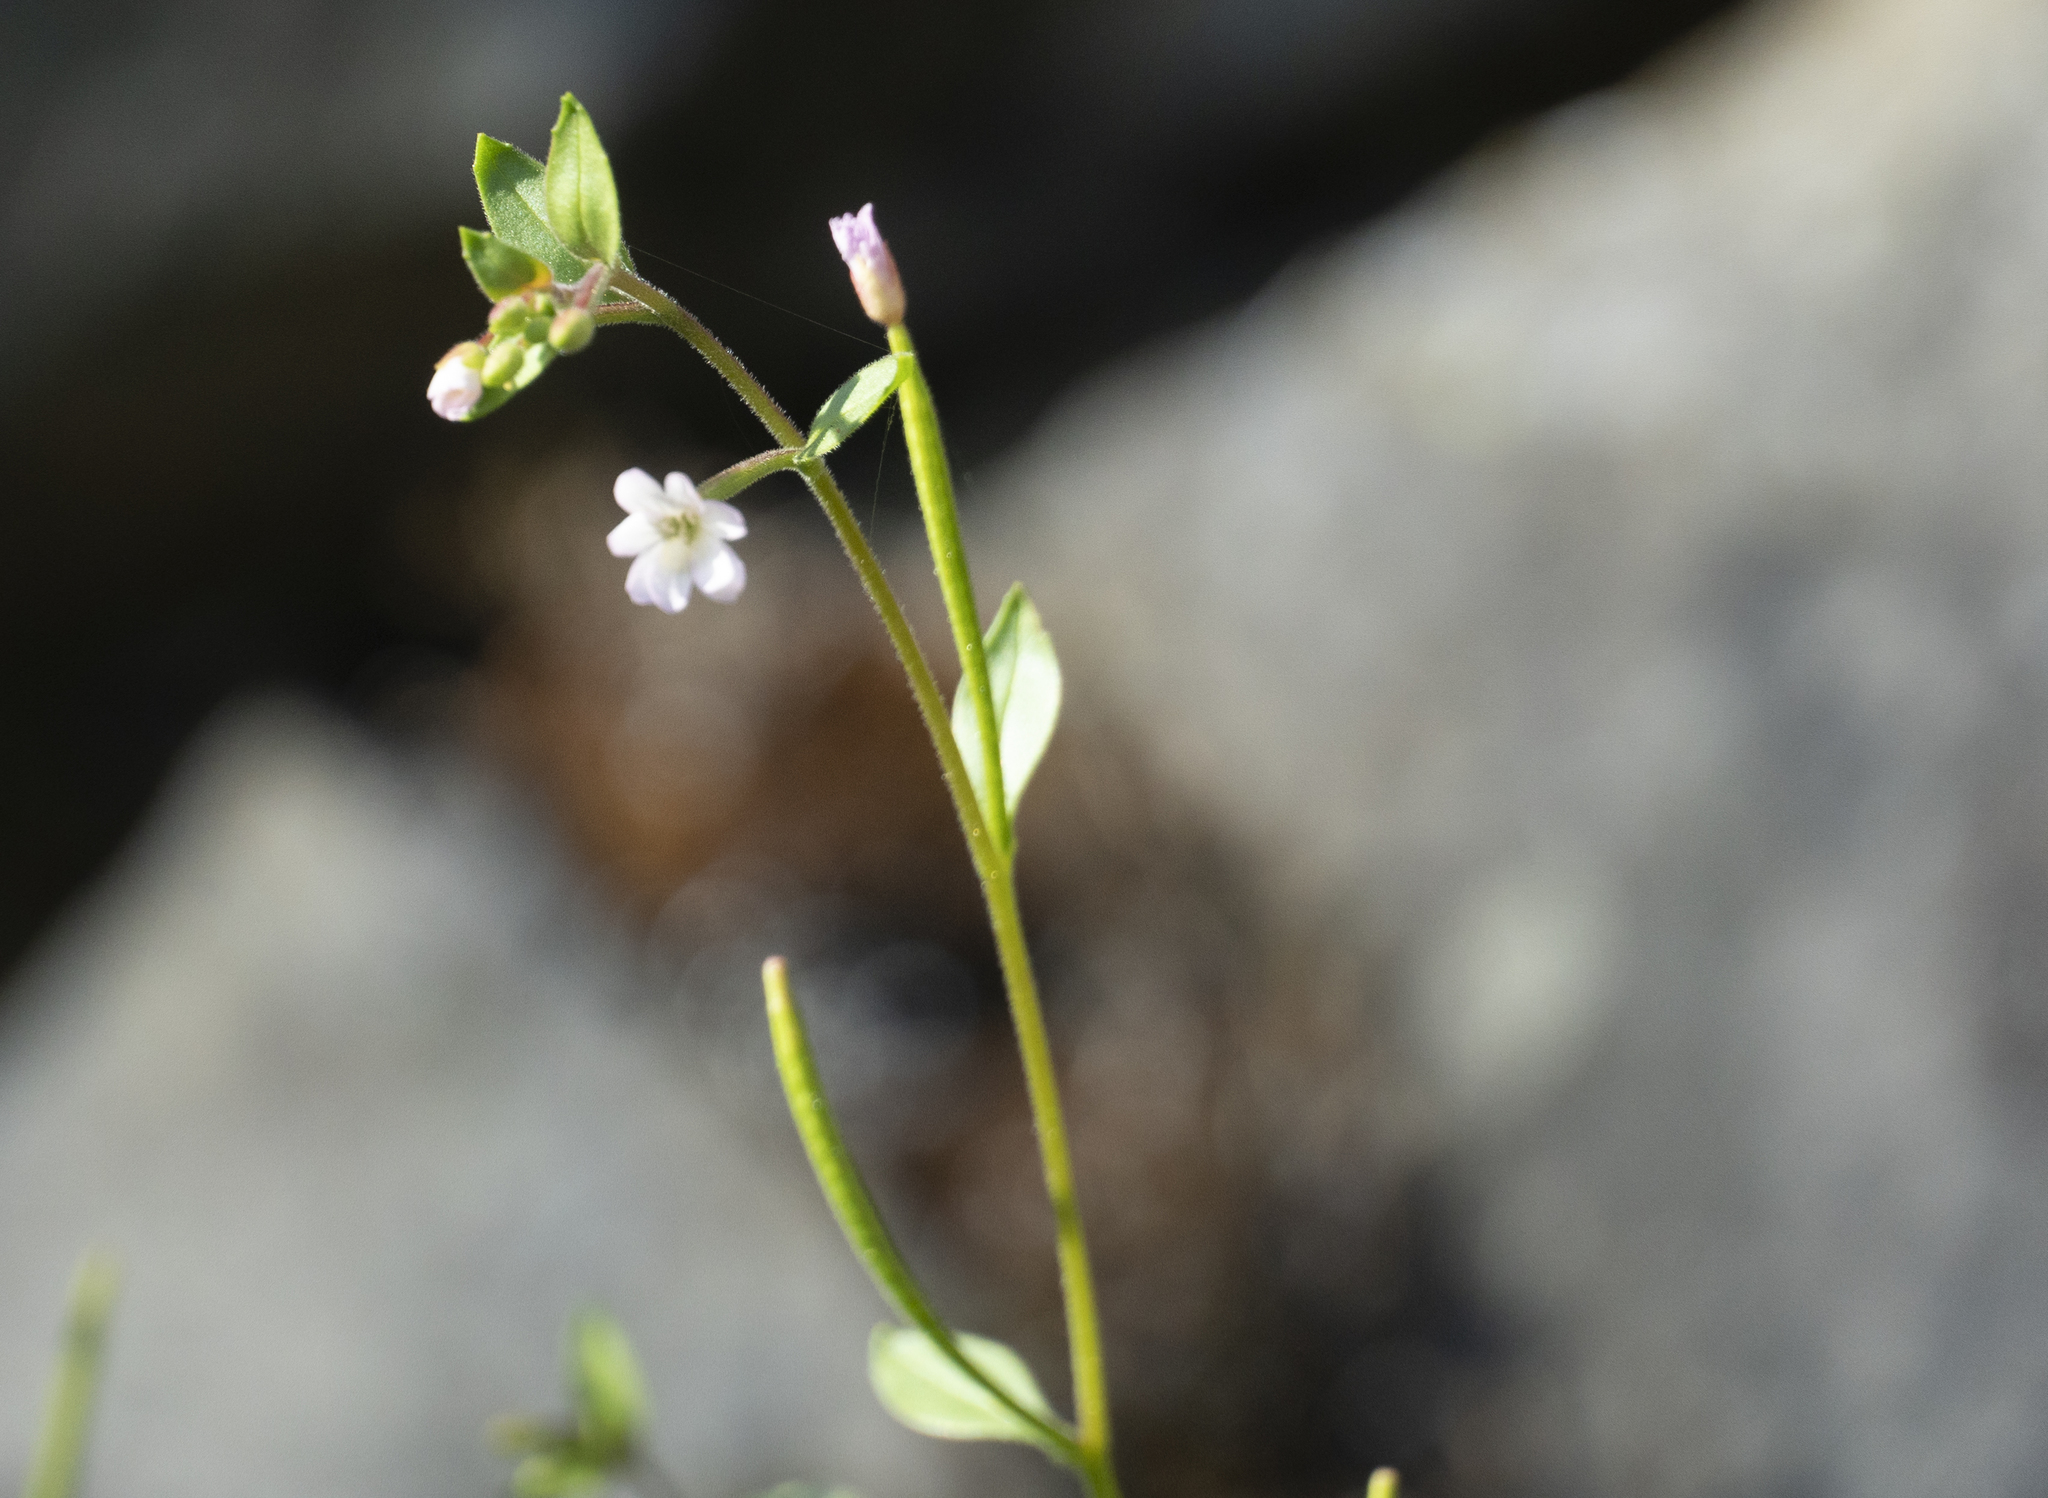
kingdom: Plantae
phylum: Tracheophyta
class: Magnoliopsida
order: Myrtales
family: Onagraceae
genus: Epilobium
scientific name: Epilobium minutum
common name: Chaparral willowherb
